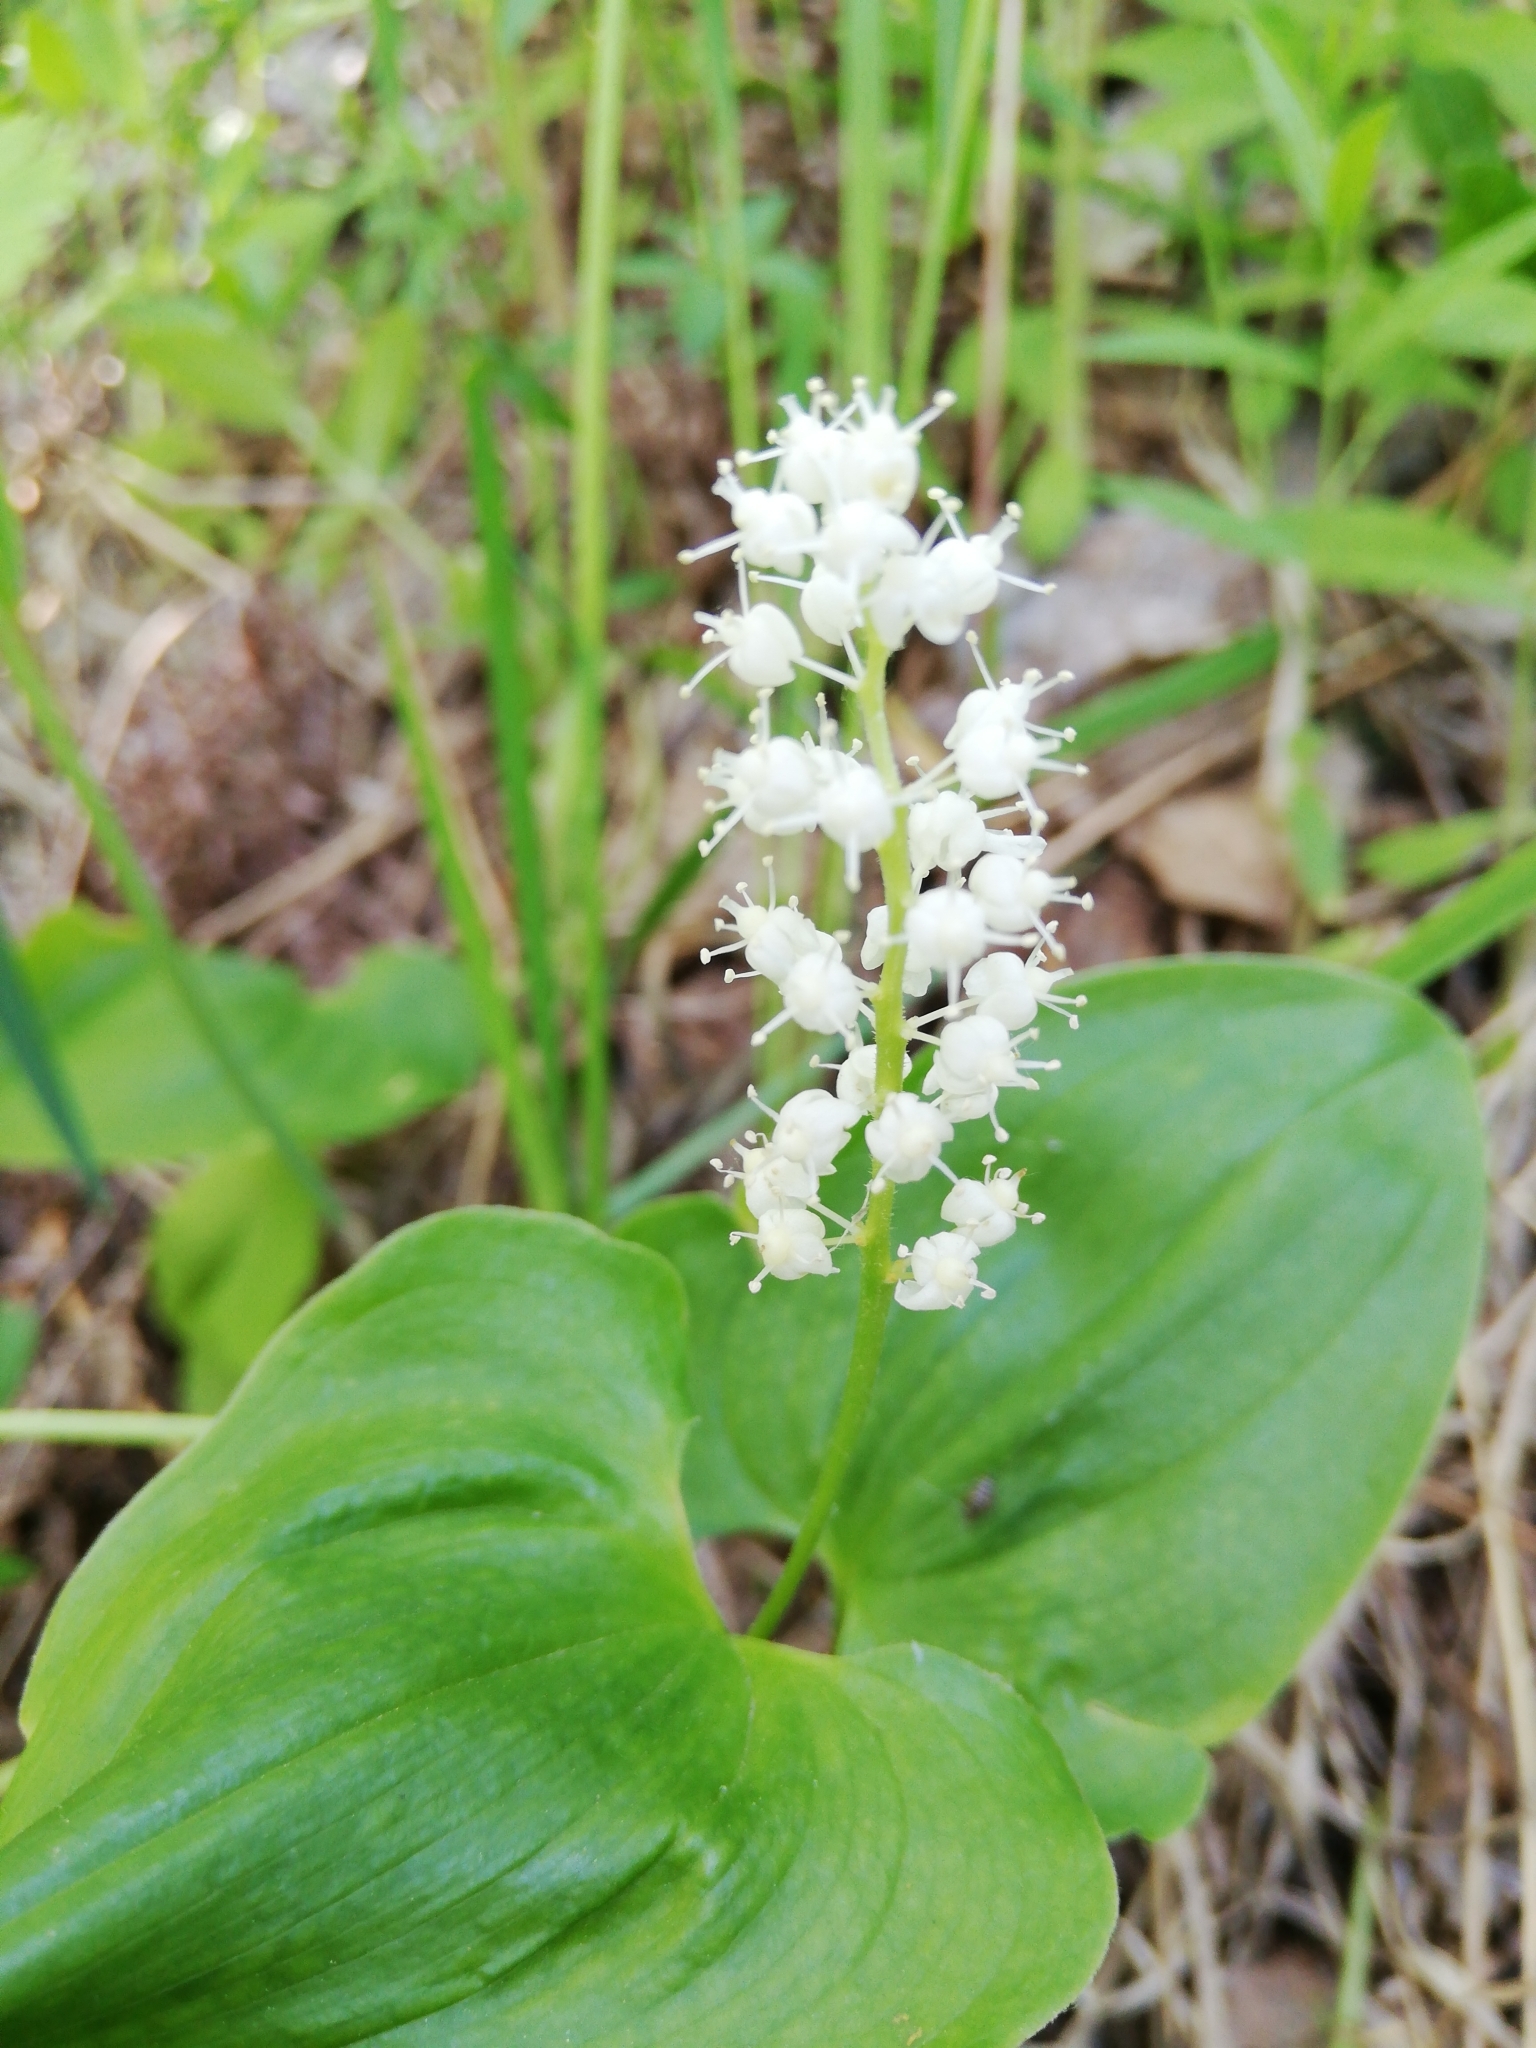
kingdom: Plantae
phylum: Tracheophyta
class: Liliopsida
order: Asparagales
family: Asparagaceae
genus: Maianthemum
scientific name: Maianthemum bifolium
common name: May lily
